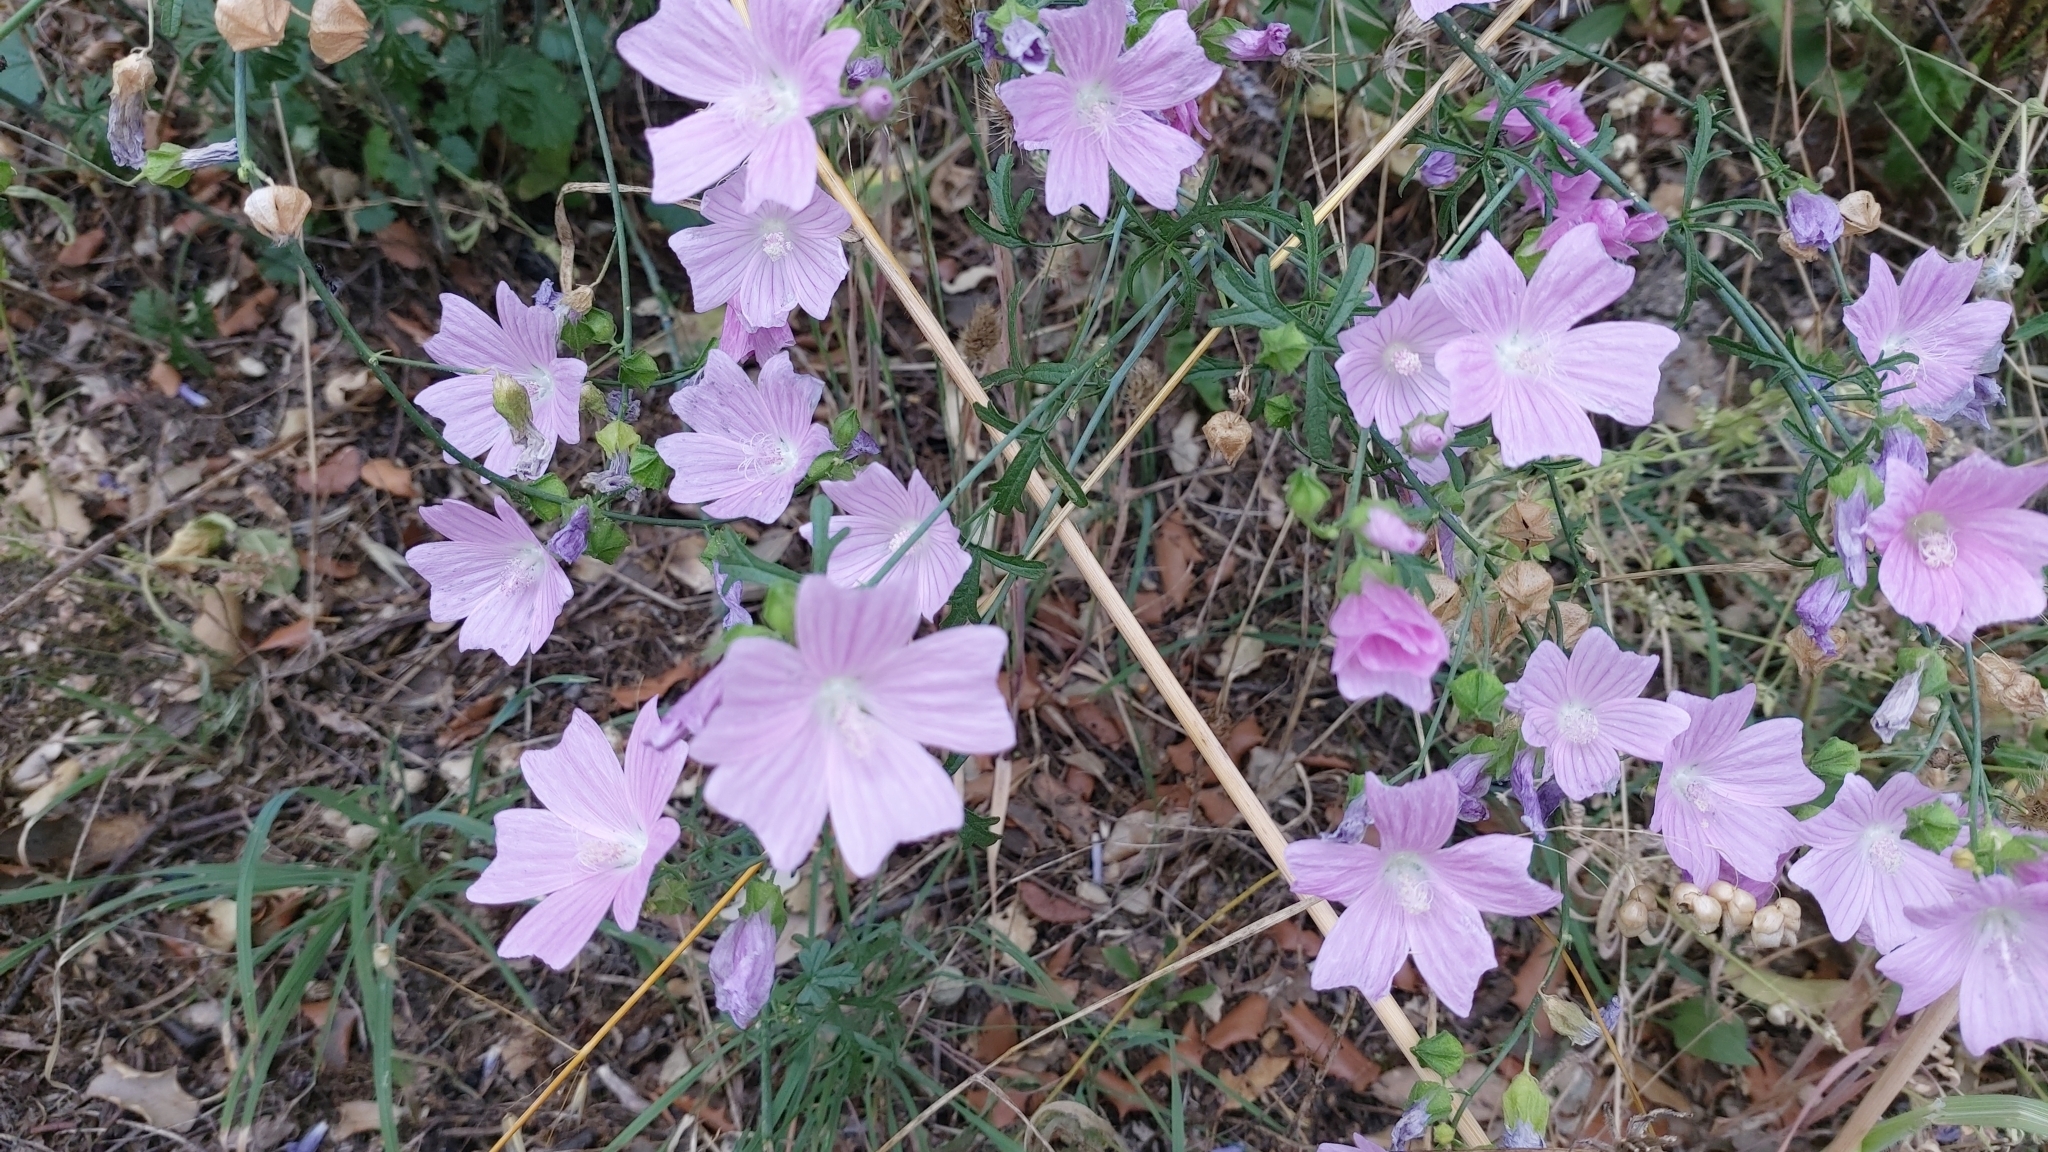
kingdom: Plantae
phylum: Tracheophyta
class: Magnoliopsida
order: Malvales
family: Malvaceae
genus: Malva
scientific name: Malva tournefortiana
